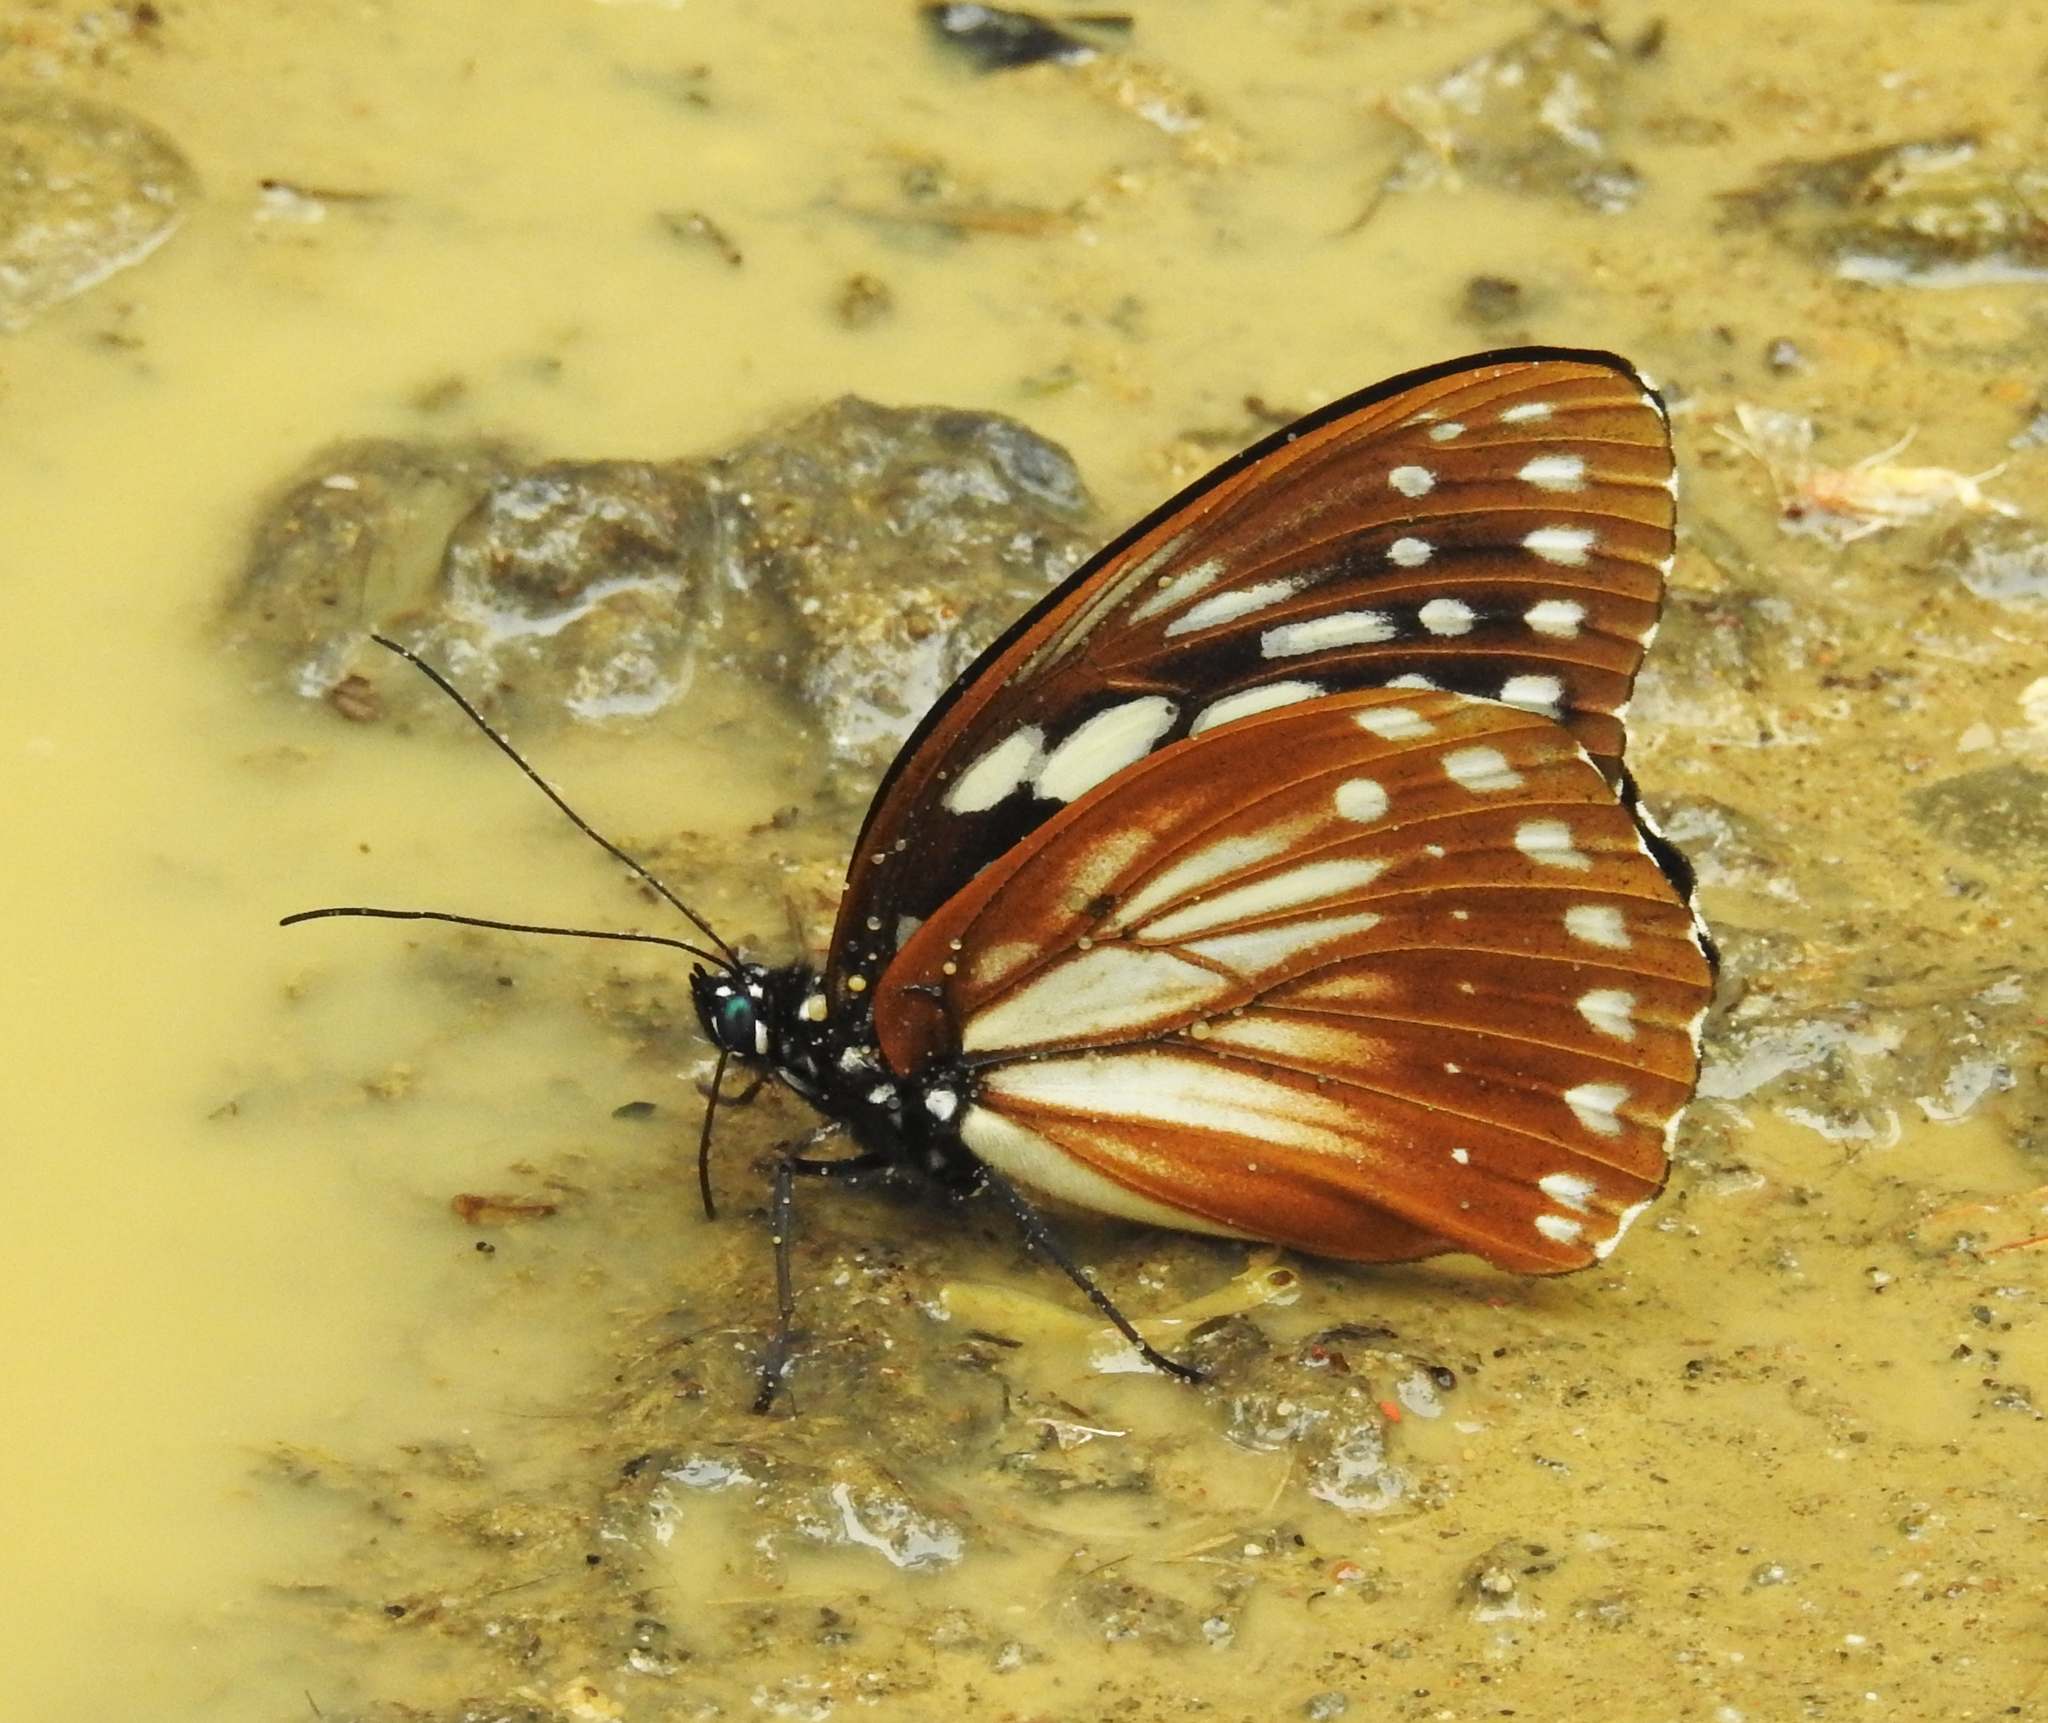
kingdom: Animalia
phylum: Arthropoda
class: Insecta
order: Lepidoptera
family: Nymphalidae
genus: Penthema
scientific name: Penthema lisarda
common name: Yellow kaiser
